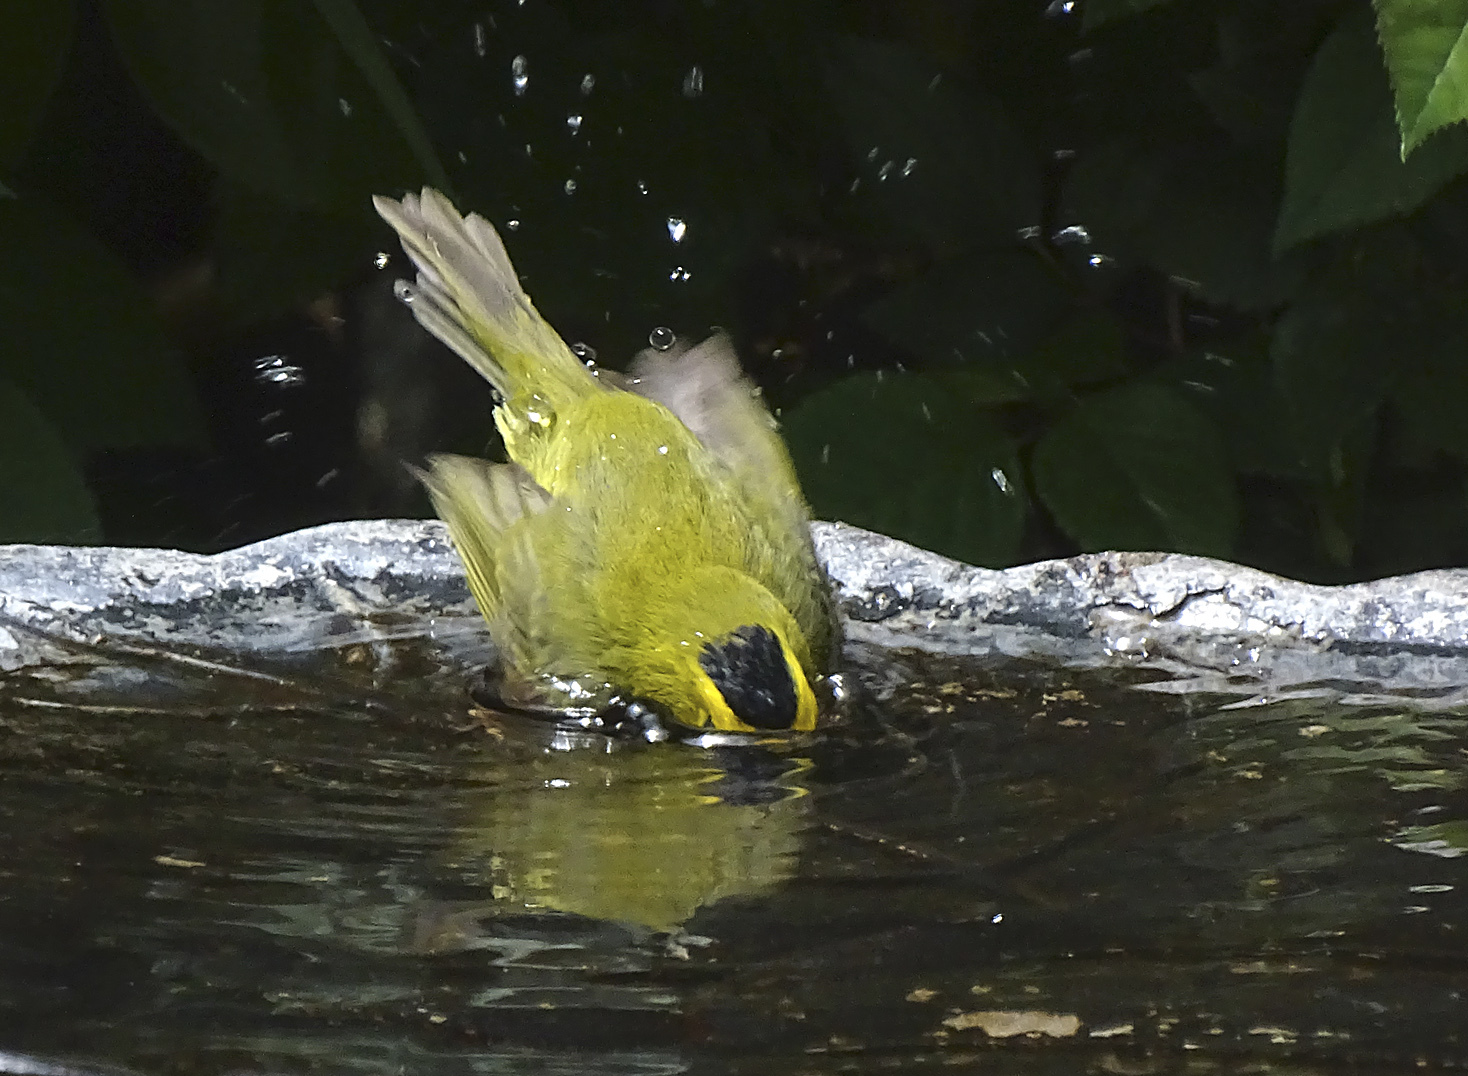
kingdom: Animalia
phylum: Chordata
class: Aves
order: Passeriformes
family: Parulidae
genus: Cardellina
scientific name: Cardellina pusilla
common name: Wilson's warbler
